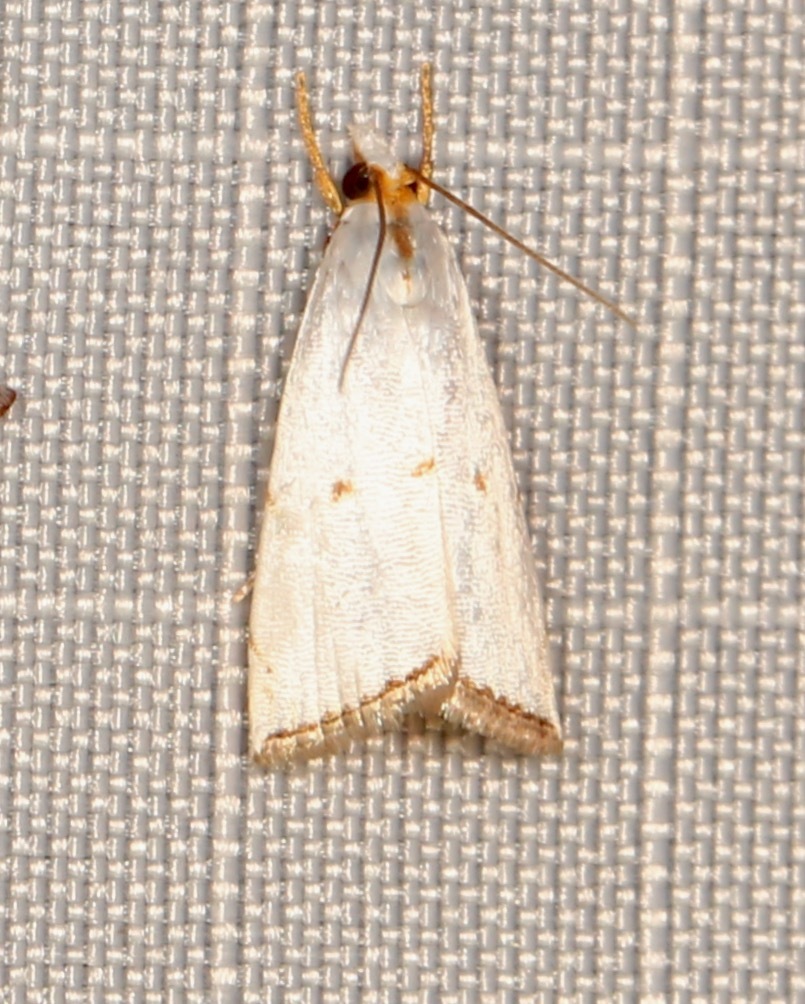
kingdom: Animalia
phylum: Arthropoda
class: Insecta
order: Lepidoptera
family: Crambidae
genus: Argyria
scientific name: Argyria pusillalis
